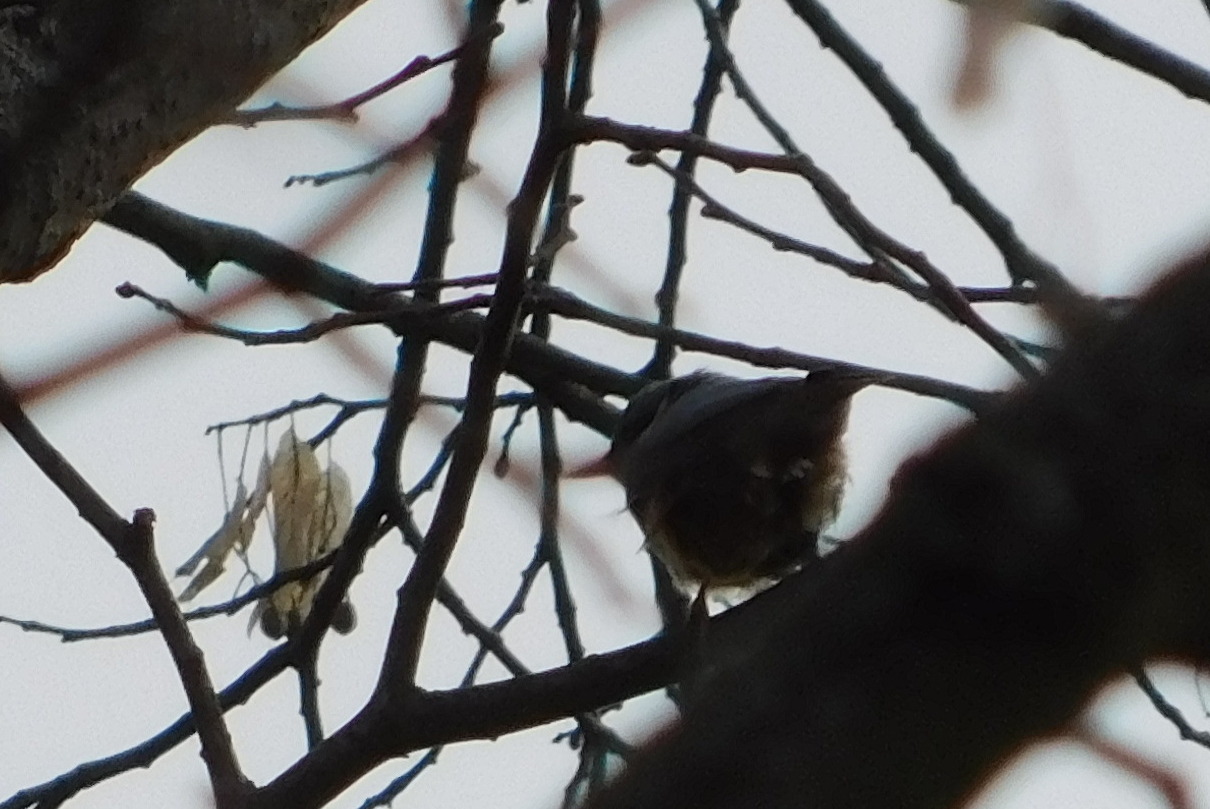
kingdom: Animalia
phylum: Chordata
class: Aves
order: Passeriformes
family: Sittidae
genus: Sitta
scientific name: Sitta europaea
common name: Eurasian nuthatch
